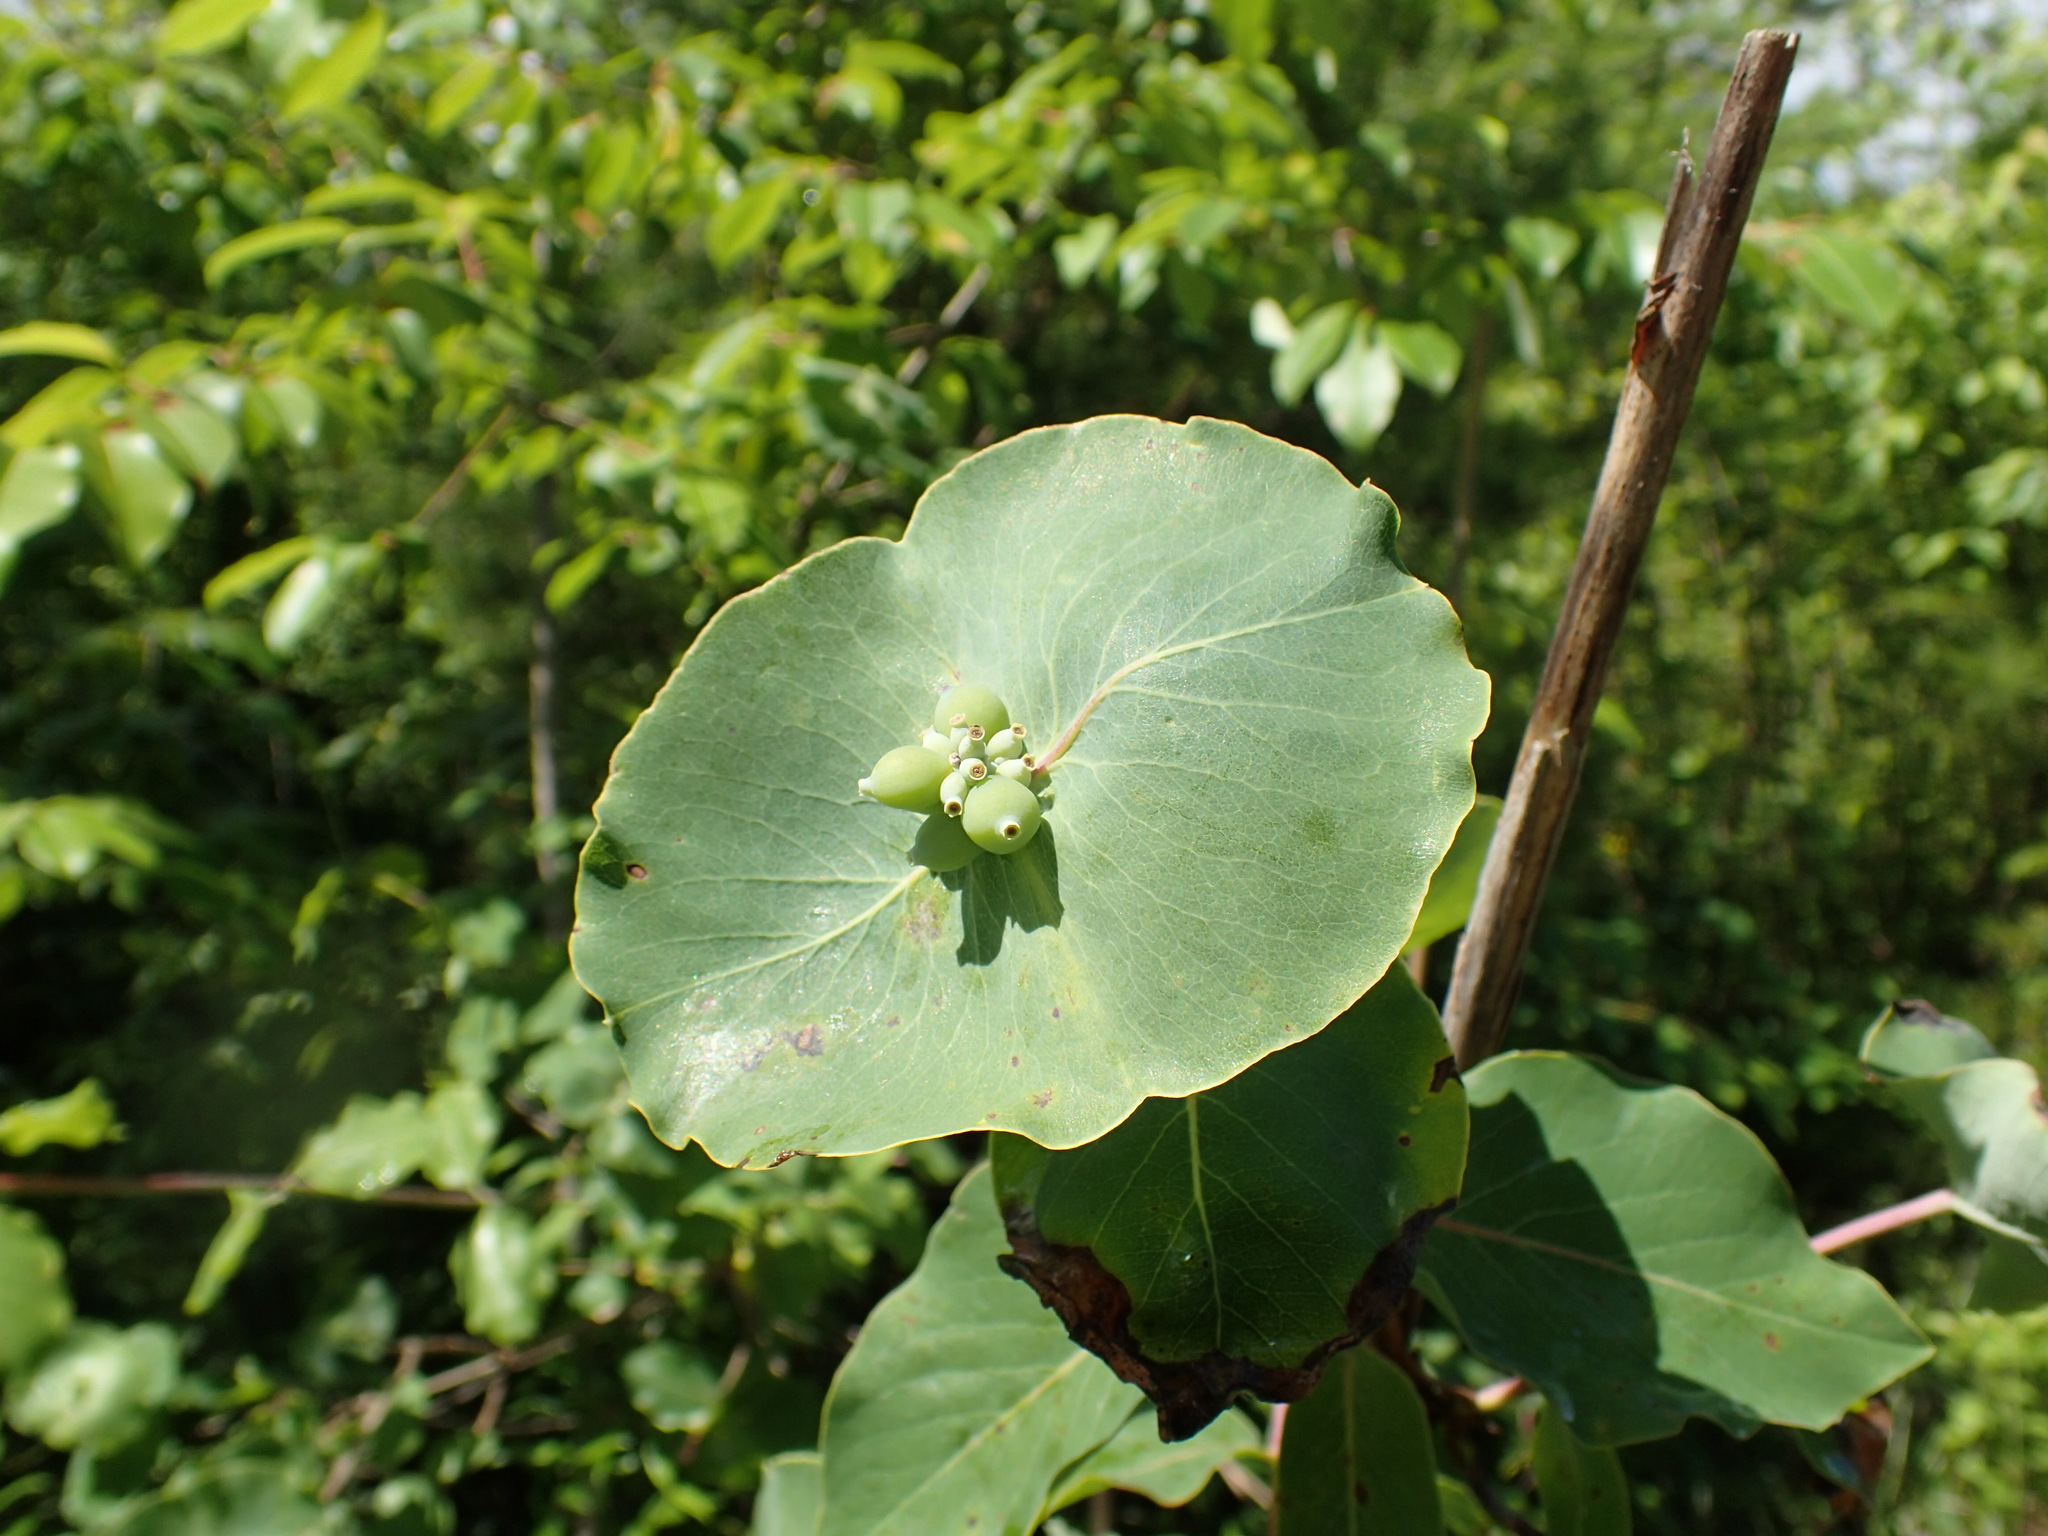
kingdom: Plantae
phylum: Tracheophyta
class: Magnoliopsida
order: Dipsacales
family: Caprifoliaceae
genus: Lonicera
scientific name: Lonicera flava
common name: Yellow honeysuckle
